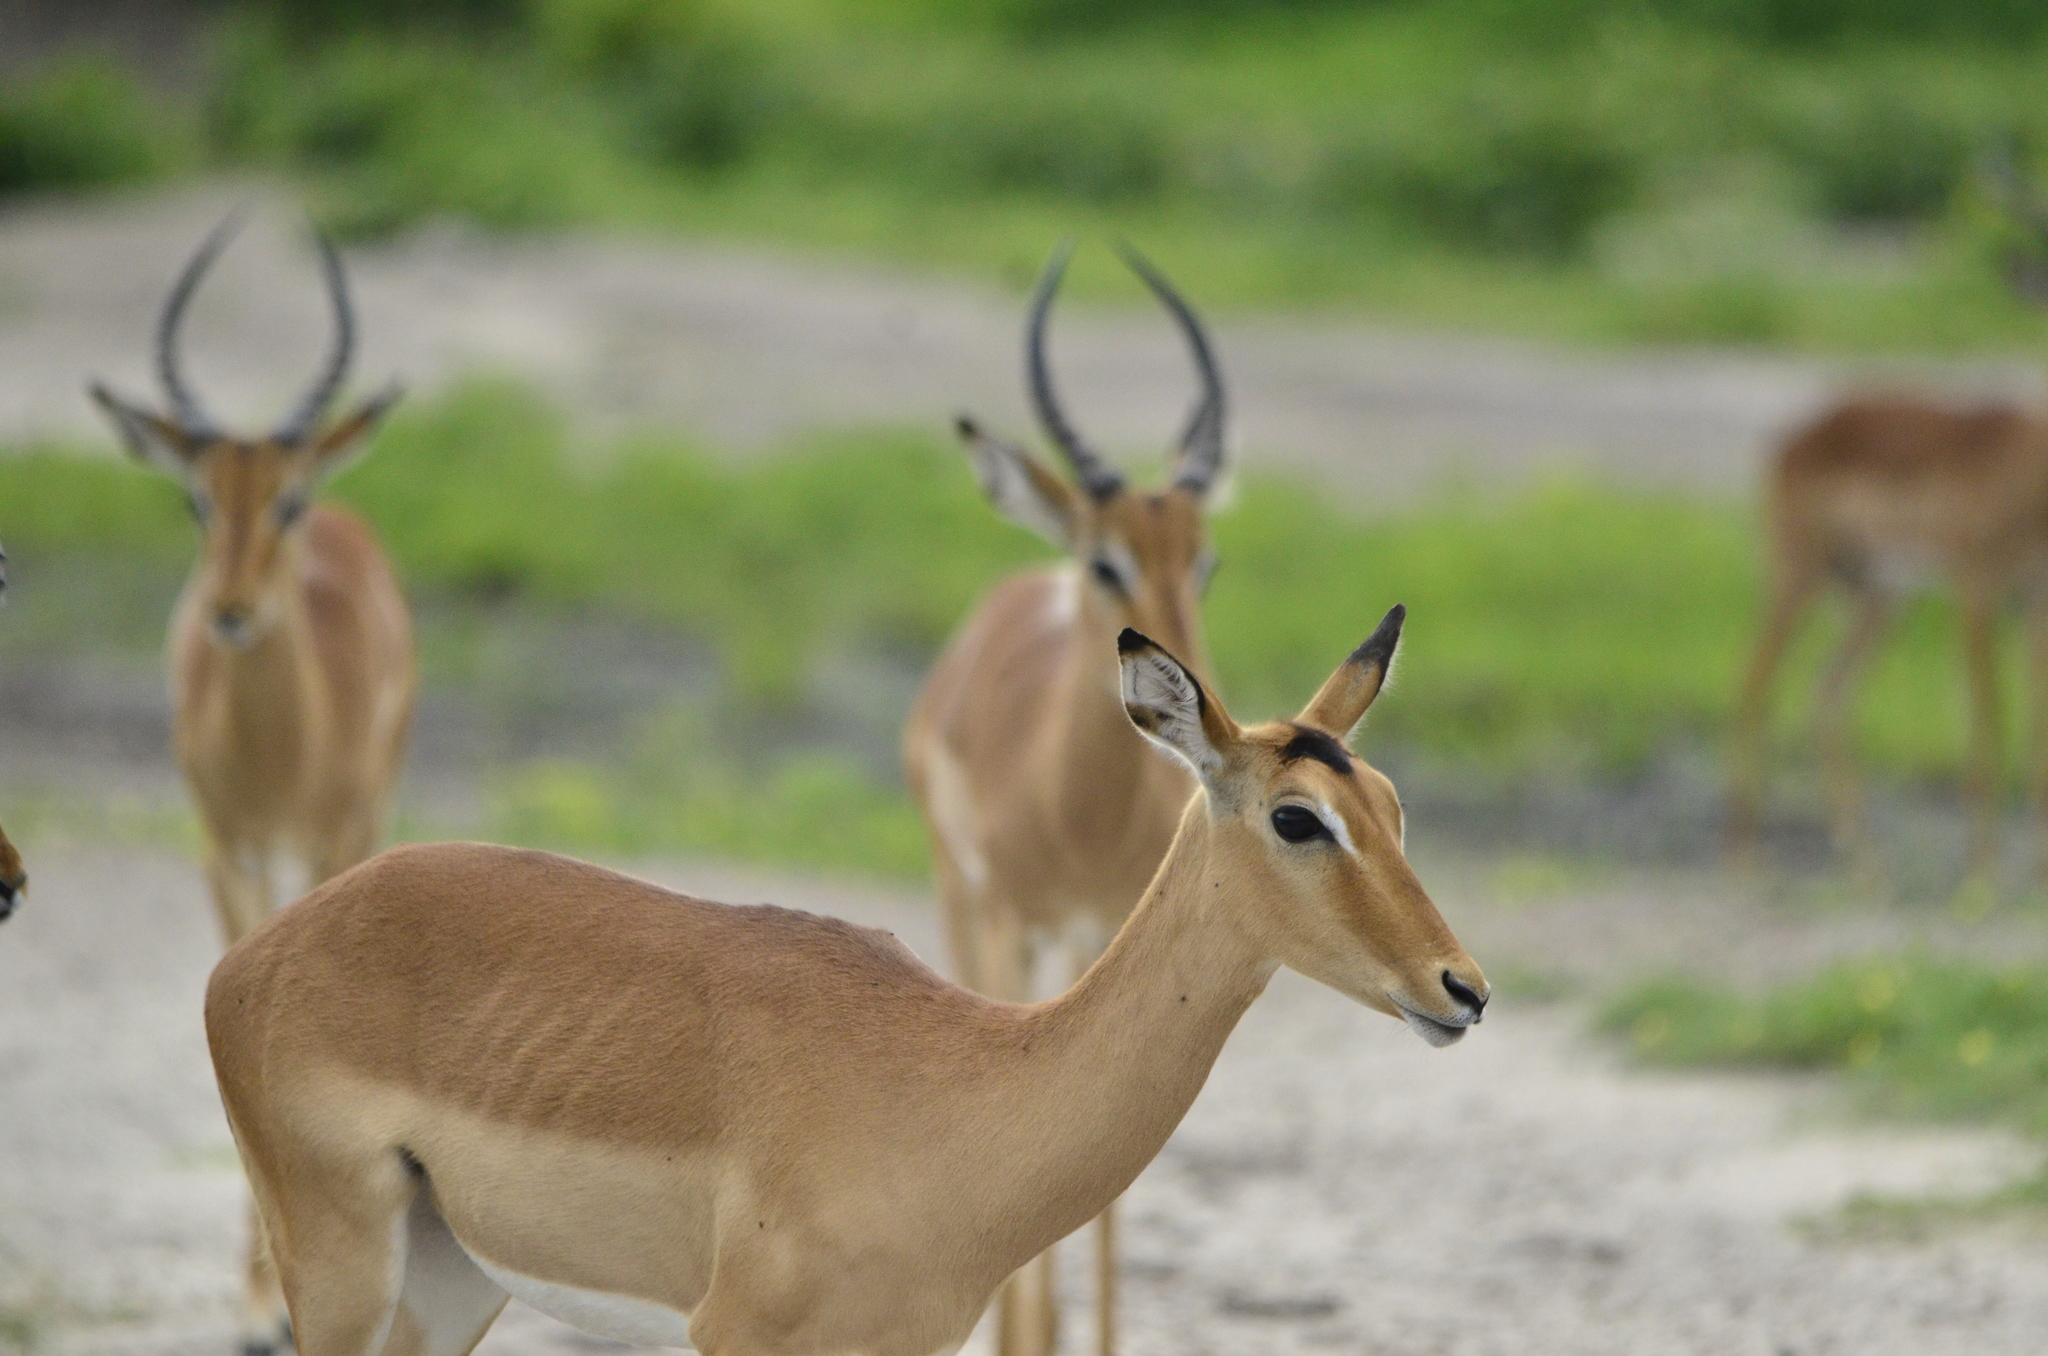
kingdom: Animalia
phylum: Chordata
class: Mammalia
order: Artiodactyla
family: Bovidae
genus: Aepyceros
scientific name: Aepyceros melampus
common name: Impala
